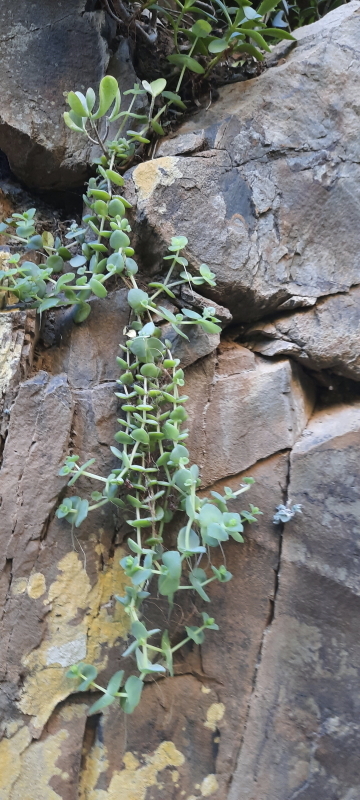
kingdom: Plantae
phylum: Tracheophyta
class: Magnoliopsida
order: Saxifragales
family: Crassulaceae
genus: Crassula
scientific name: Crassula pellucida
